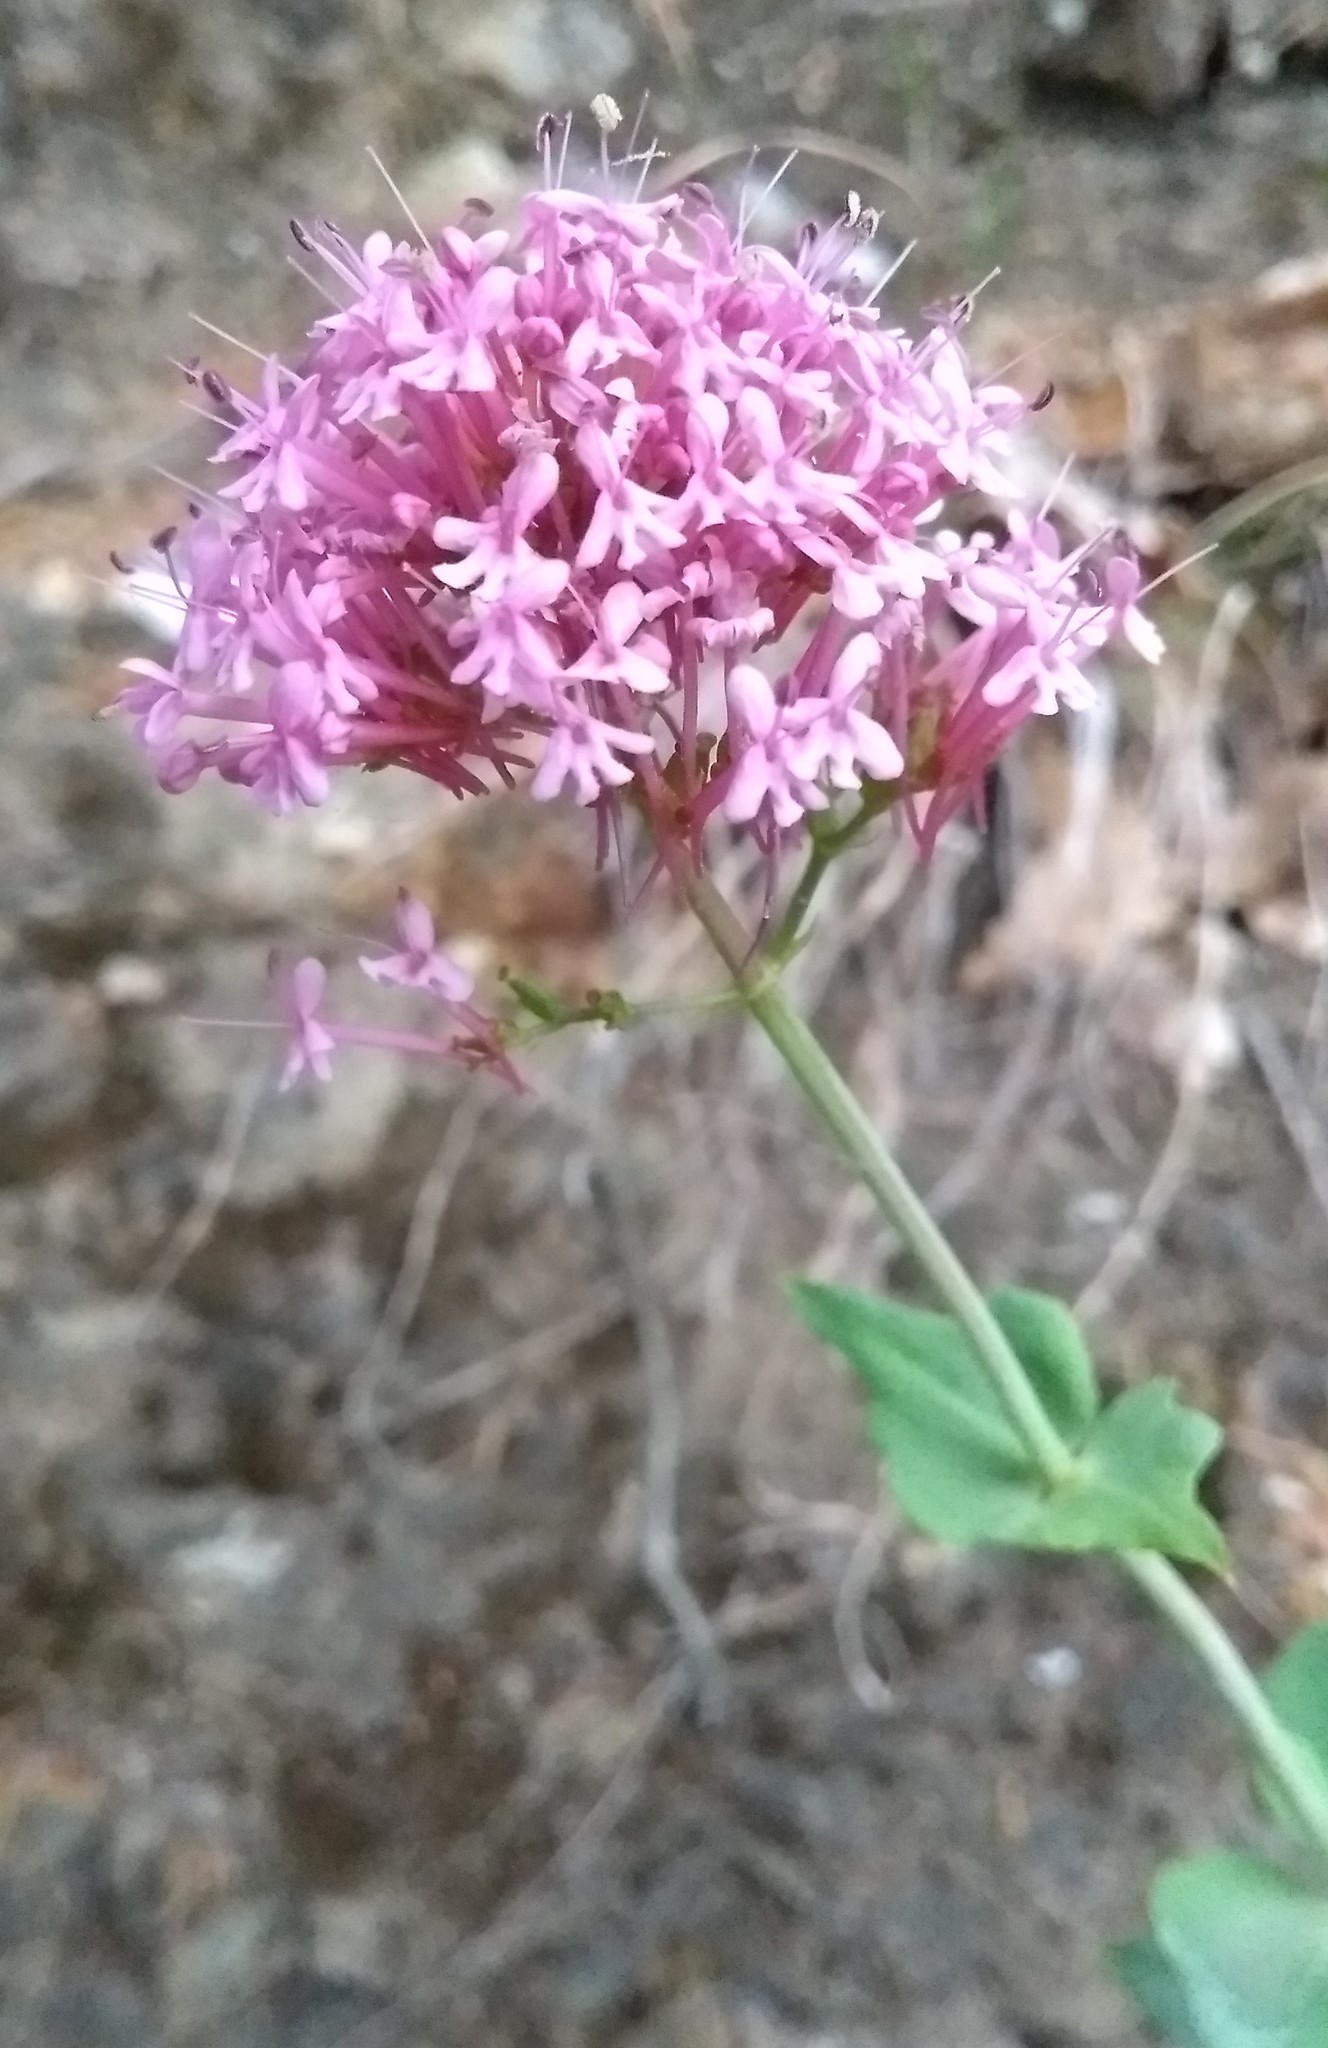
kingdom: Plantae
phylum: Tracheophyta
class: Magnoliopsida
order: Dipsacales
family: Caprifoliaceae
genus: Centranthus
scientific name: Centranthus ruber
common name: Red valerian
